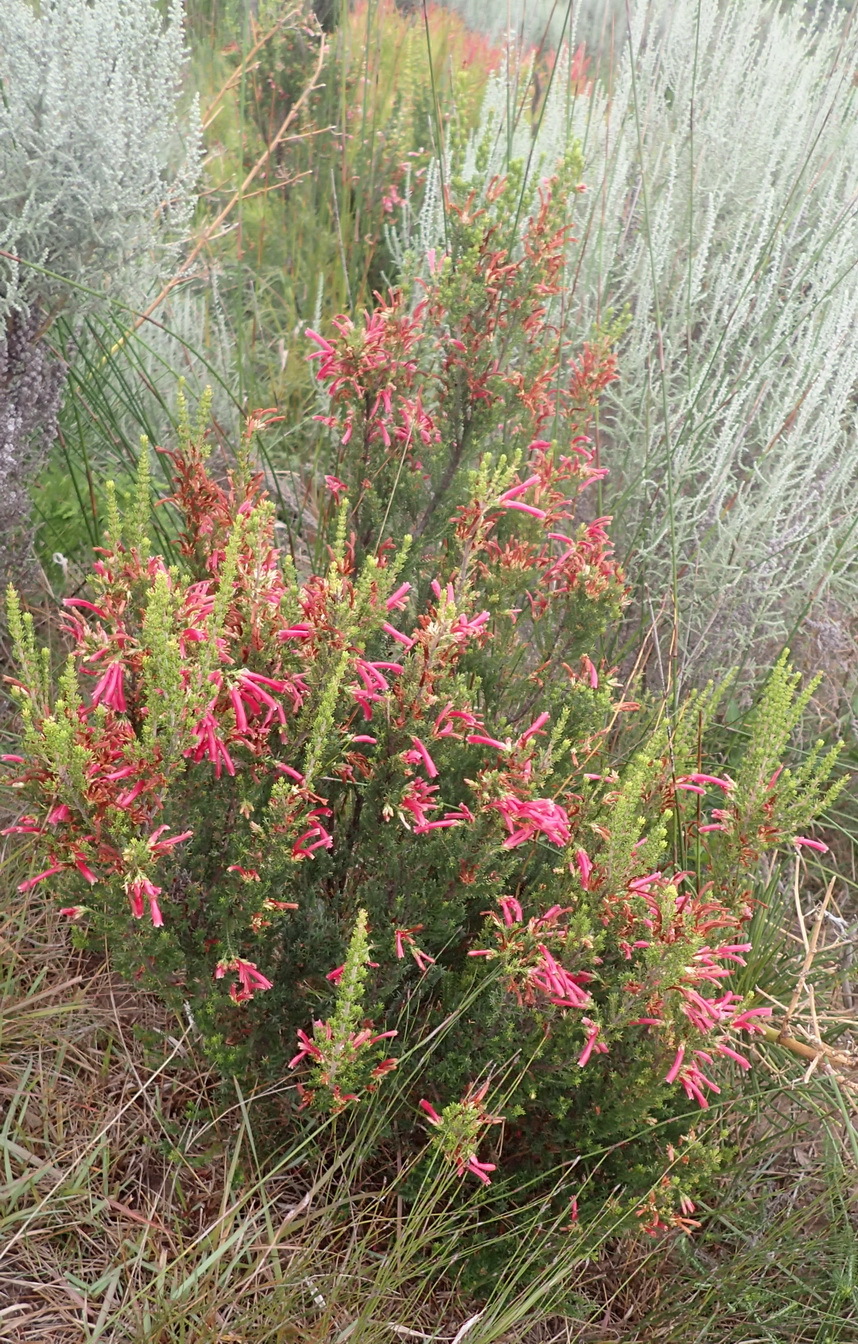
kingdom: Plantae
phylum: Tracheophyta
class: Magnoliopsida
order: Ericales
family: Ericaceae
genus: Erica
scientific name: Erica discolor
